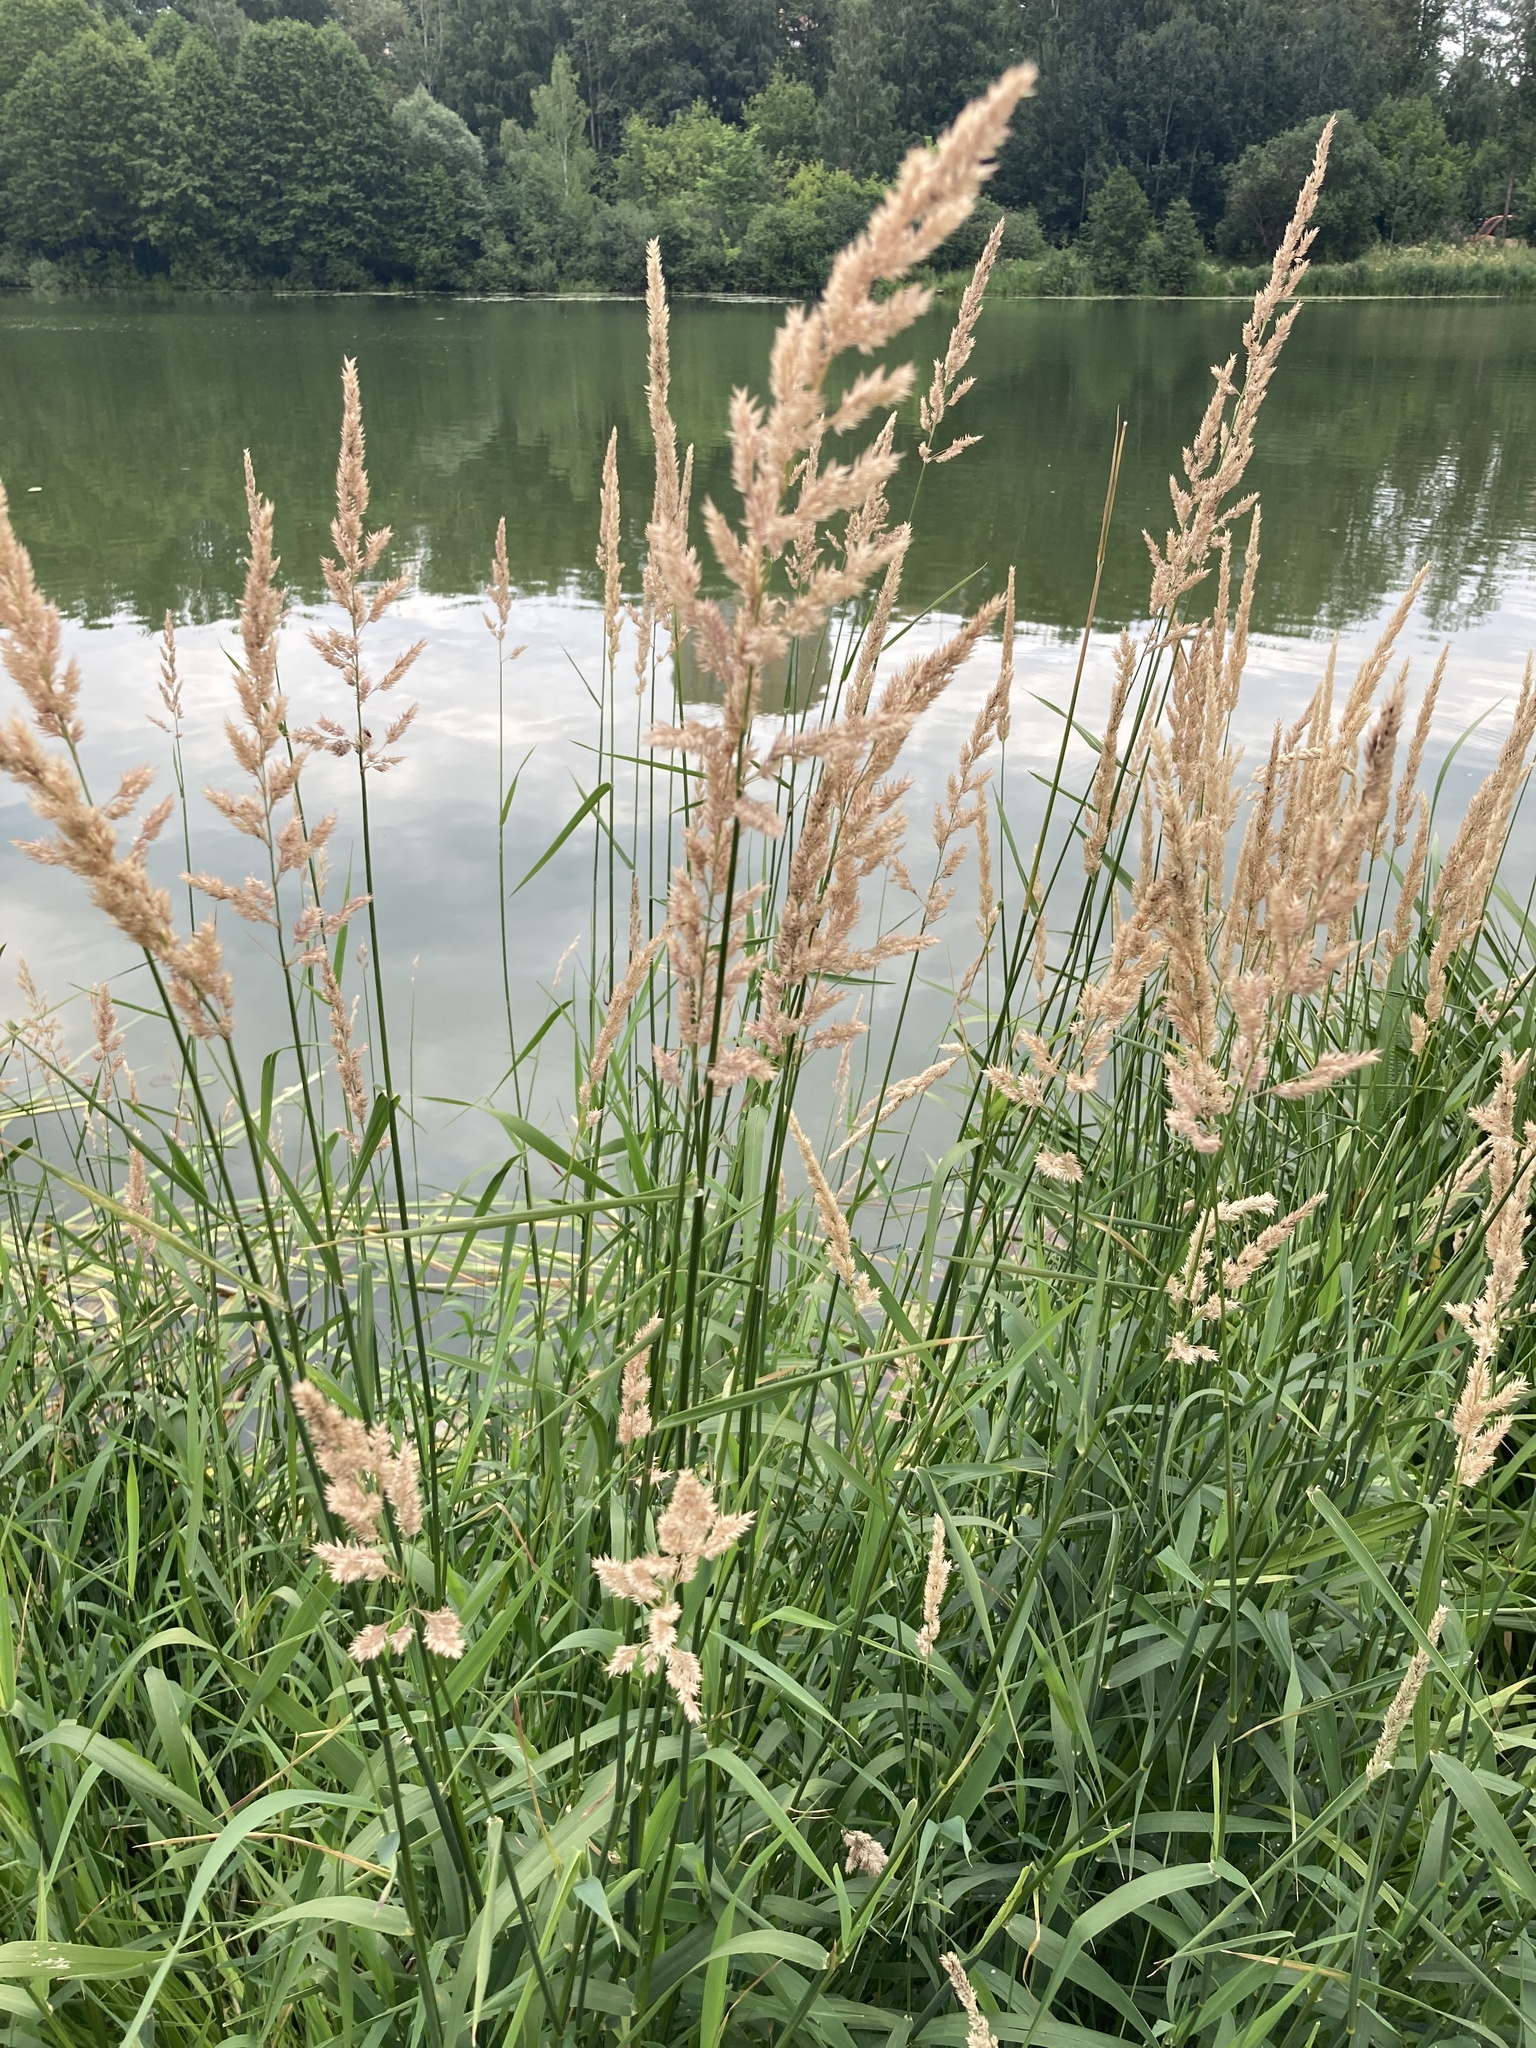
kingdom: Plantae
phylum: Tracheophyta
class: Liliopsida
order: Poales
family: Poaceae
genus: Phalaris
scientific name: Phalaris arundinacea
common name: Reed canary-grass
